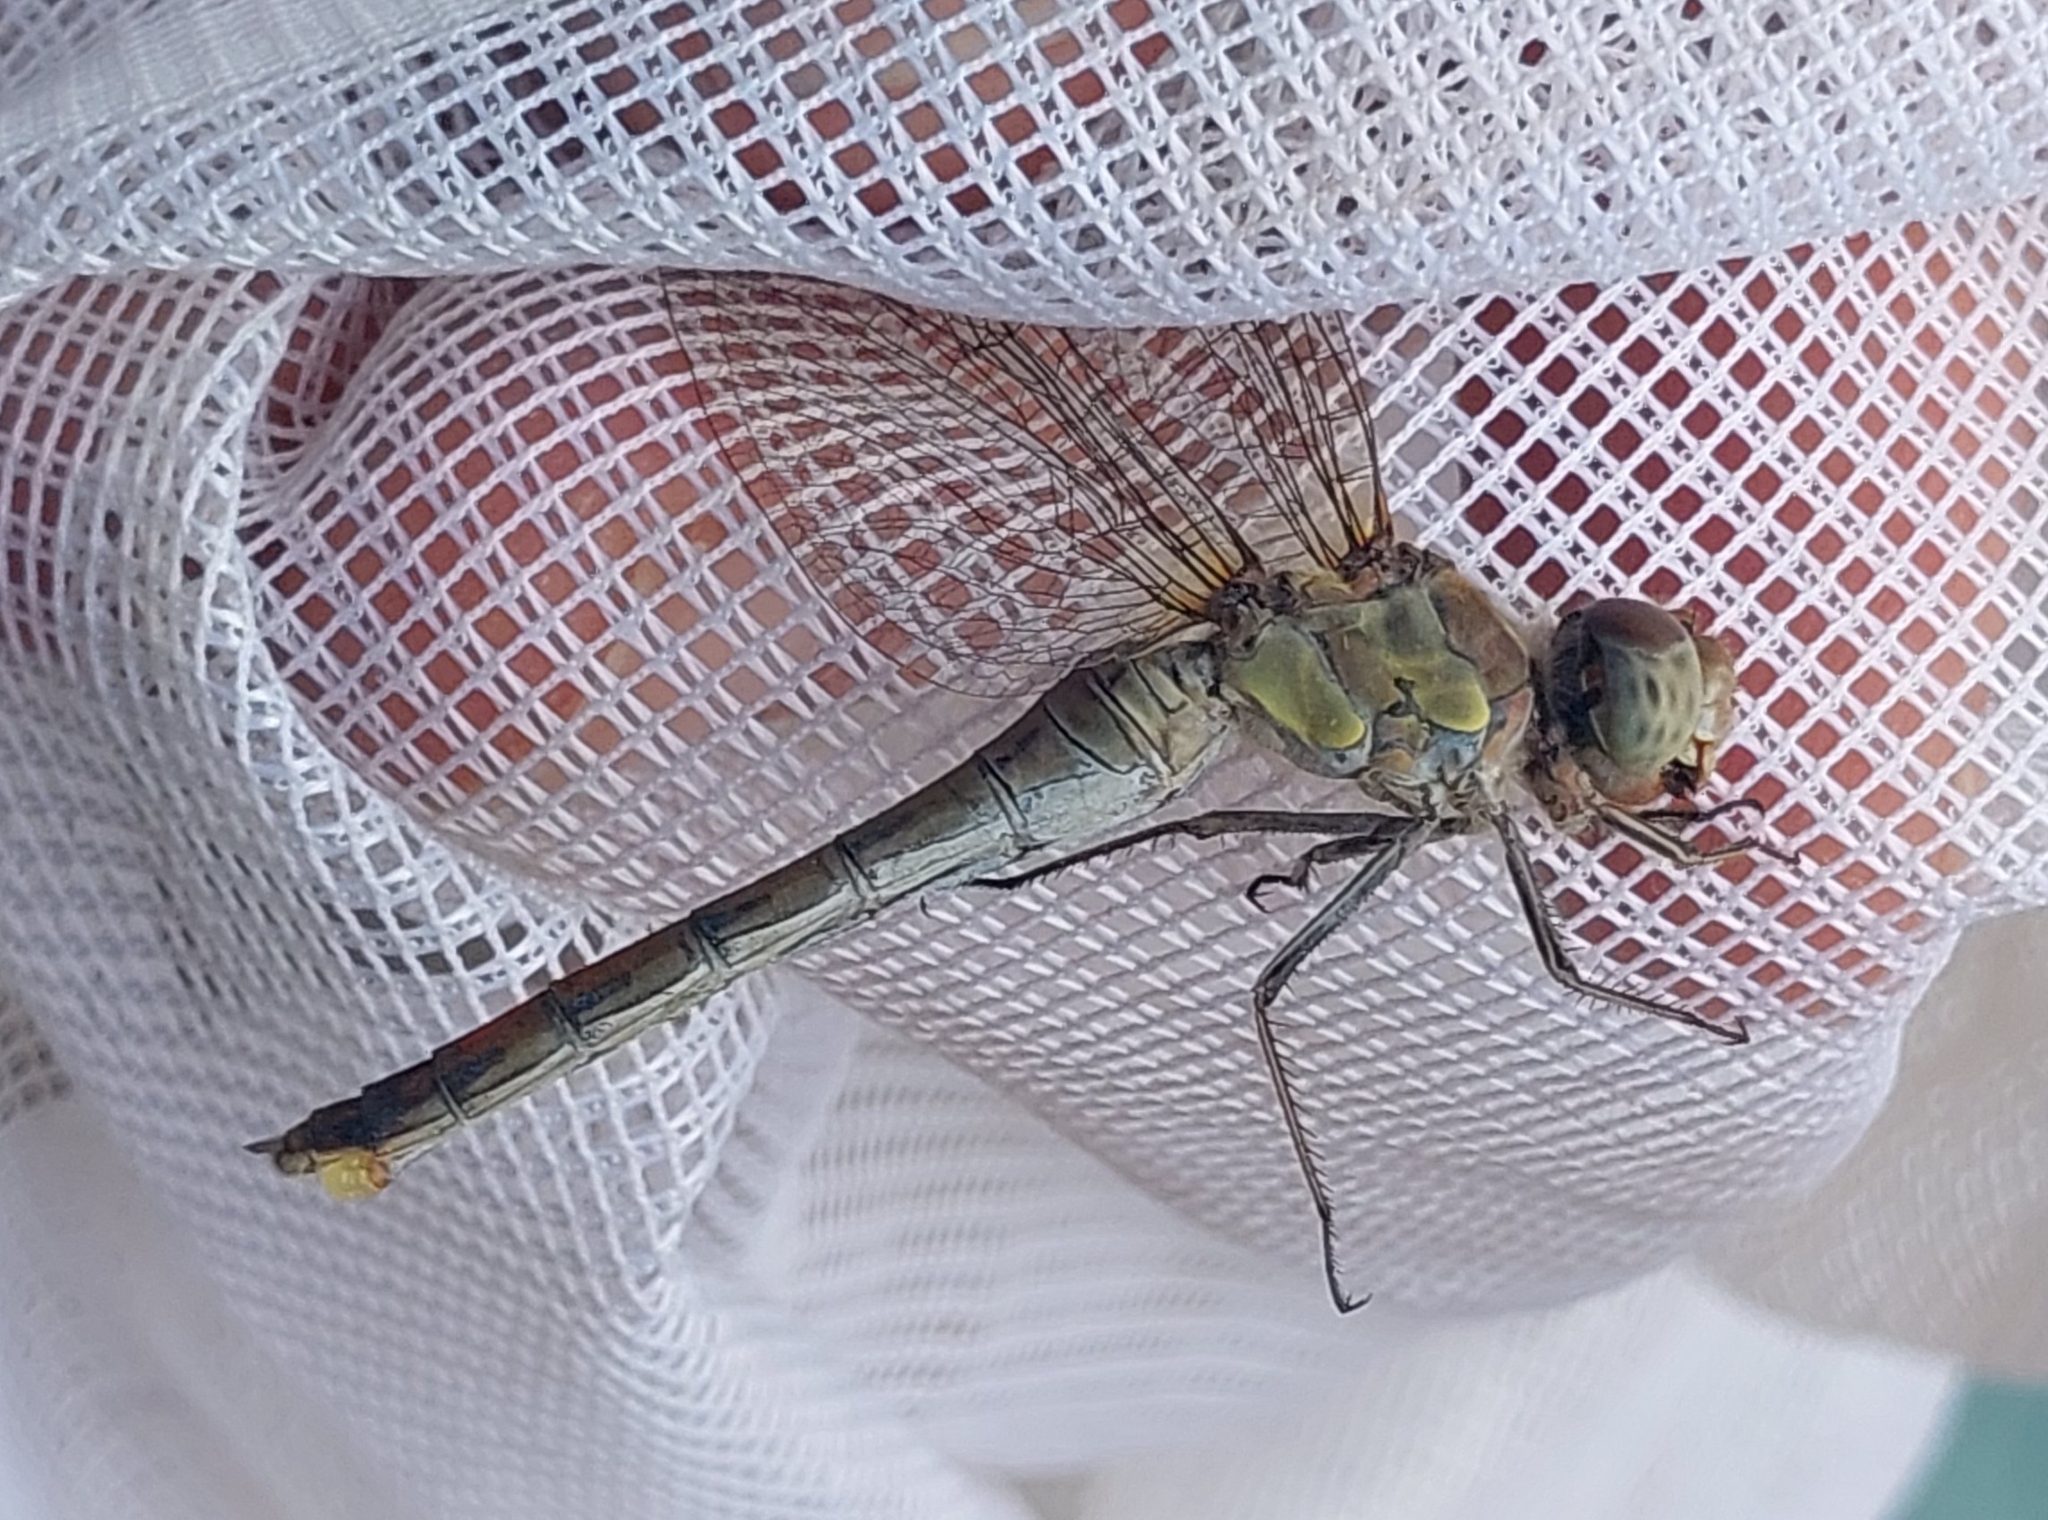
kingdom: Animalia
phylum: Arthropoda
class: Insecta
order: Odonata
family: Libellulidae
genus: Sympetrum
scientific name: Sympetrum striolatum
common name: Common darter
